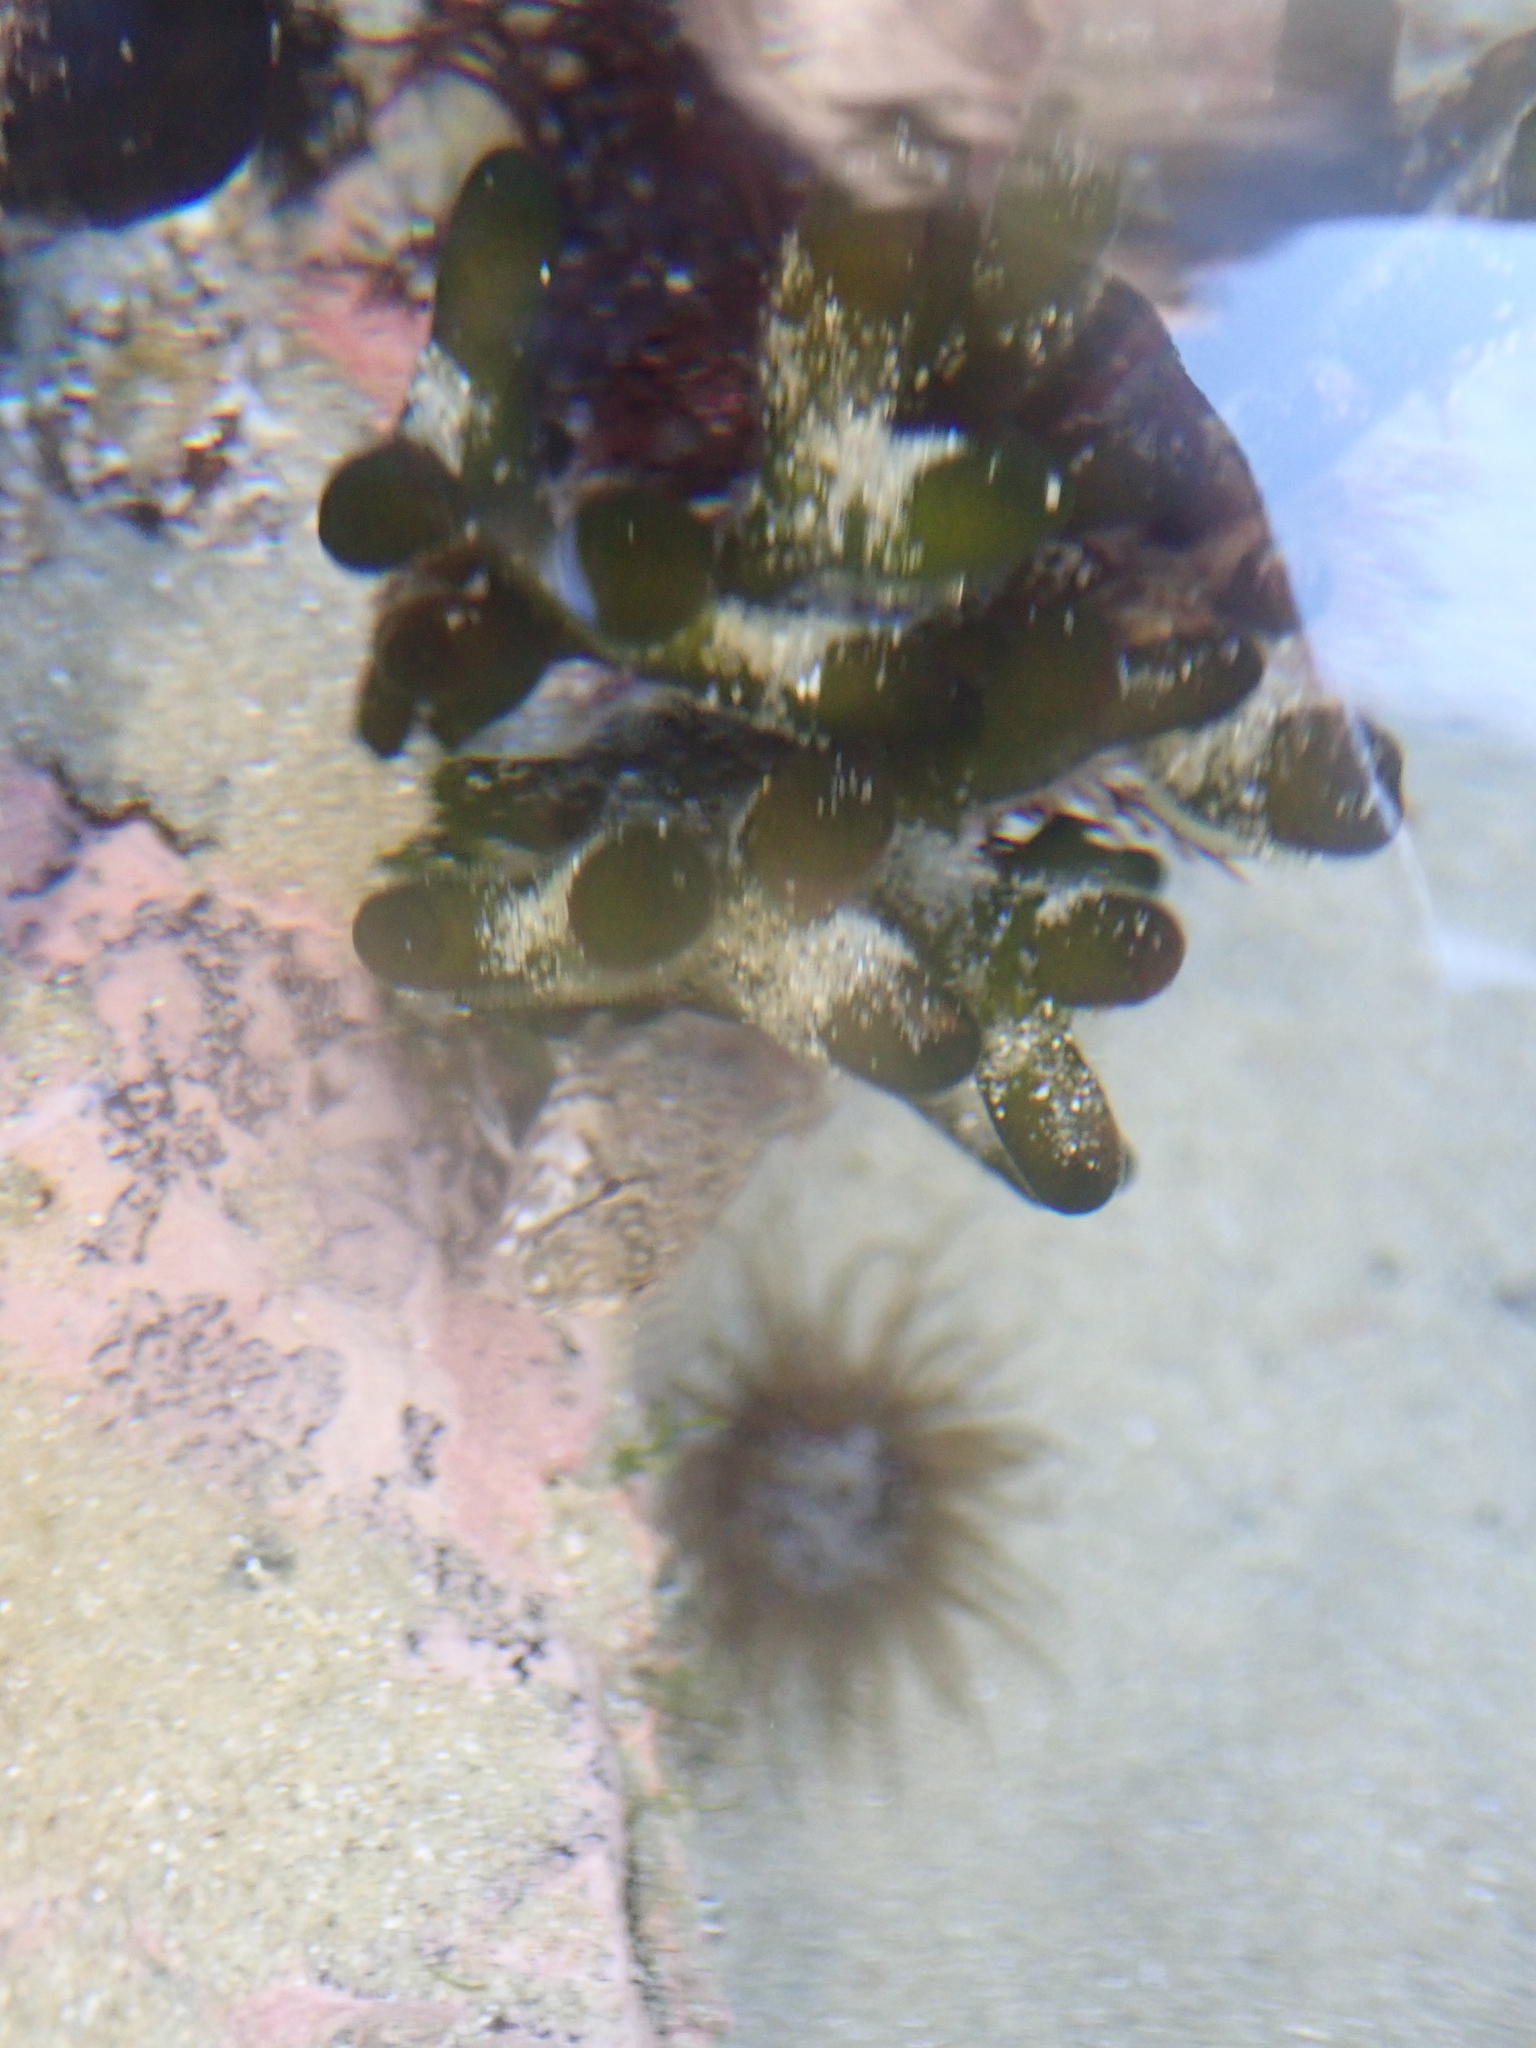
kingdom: Plantae
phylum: Chlorophyta
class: Ulvophyceae
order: Bryopsidales
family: Codiaceae
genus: Codium
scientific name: Codium fragile
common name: Dead man's fingers
